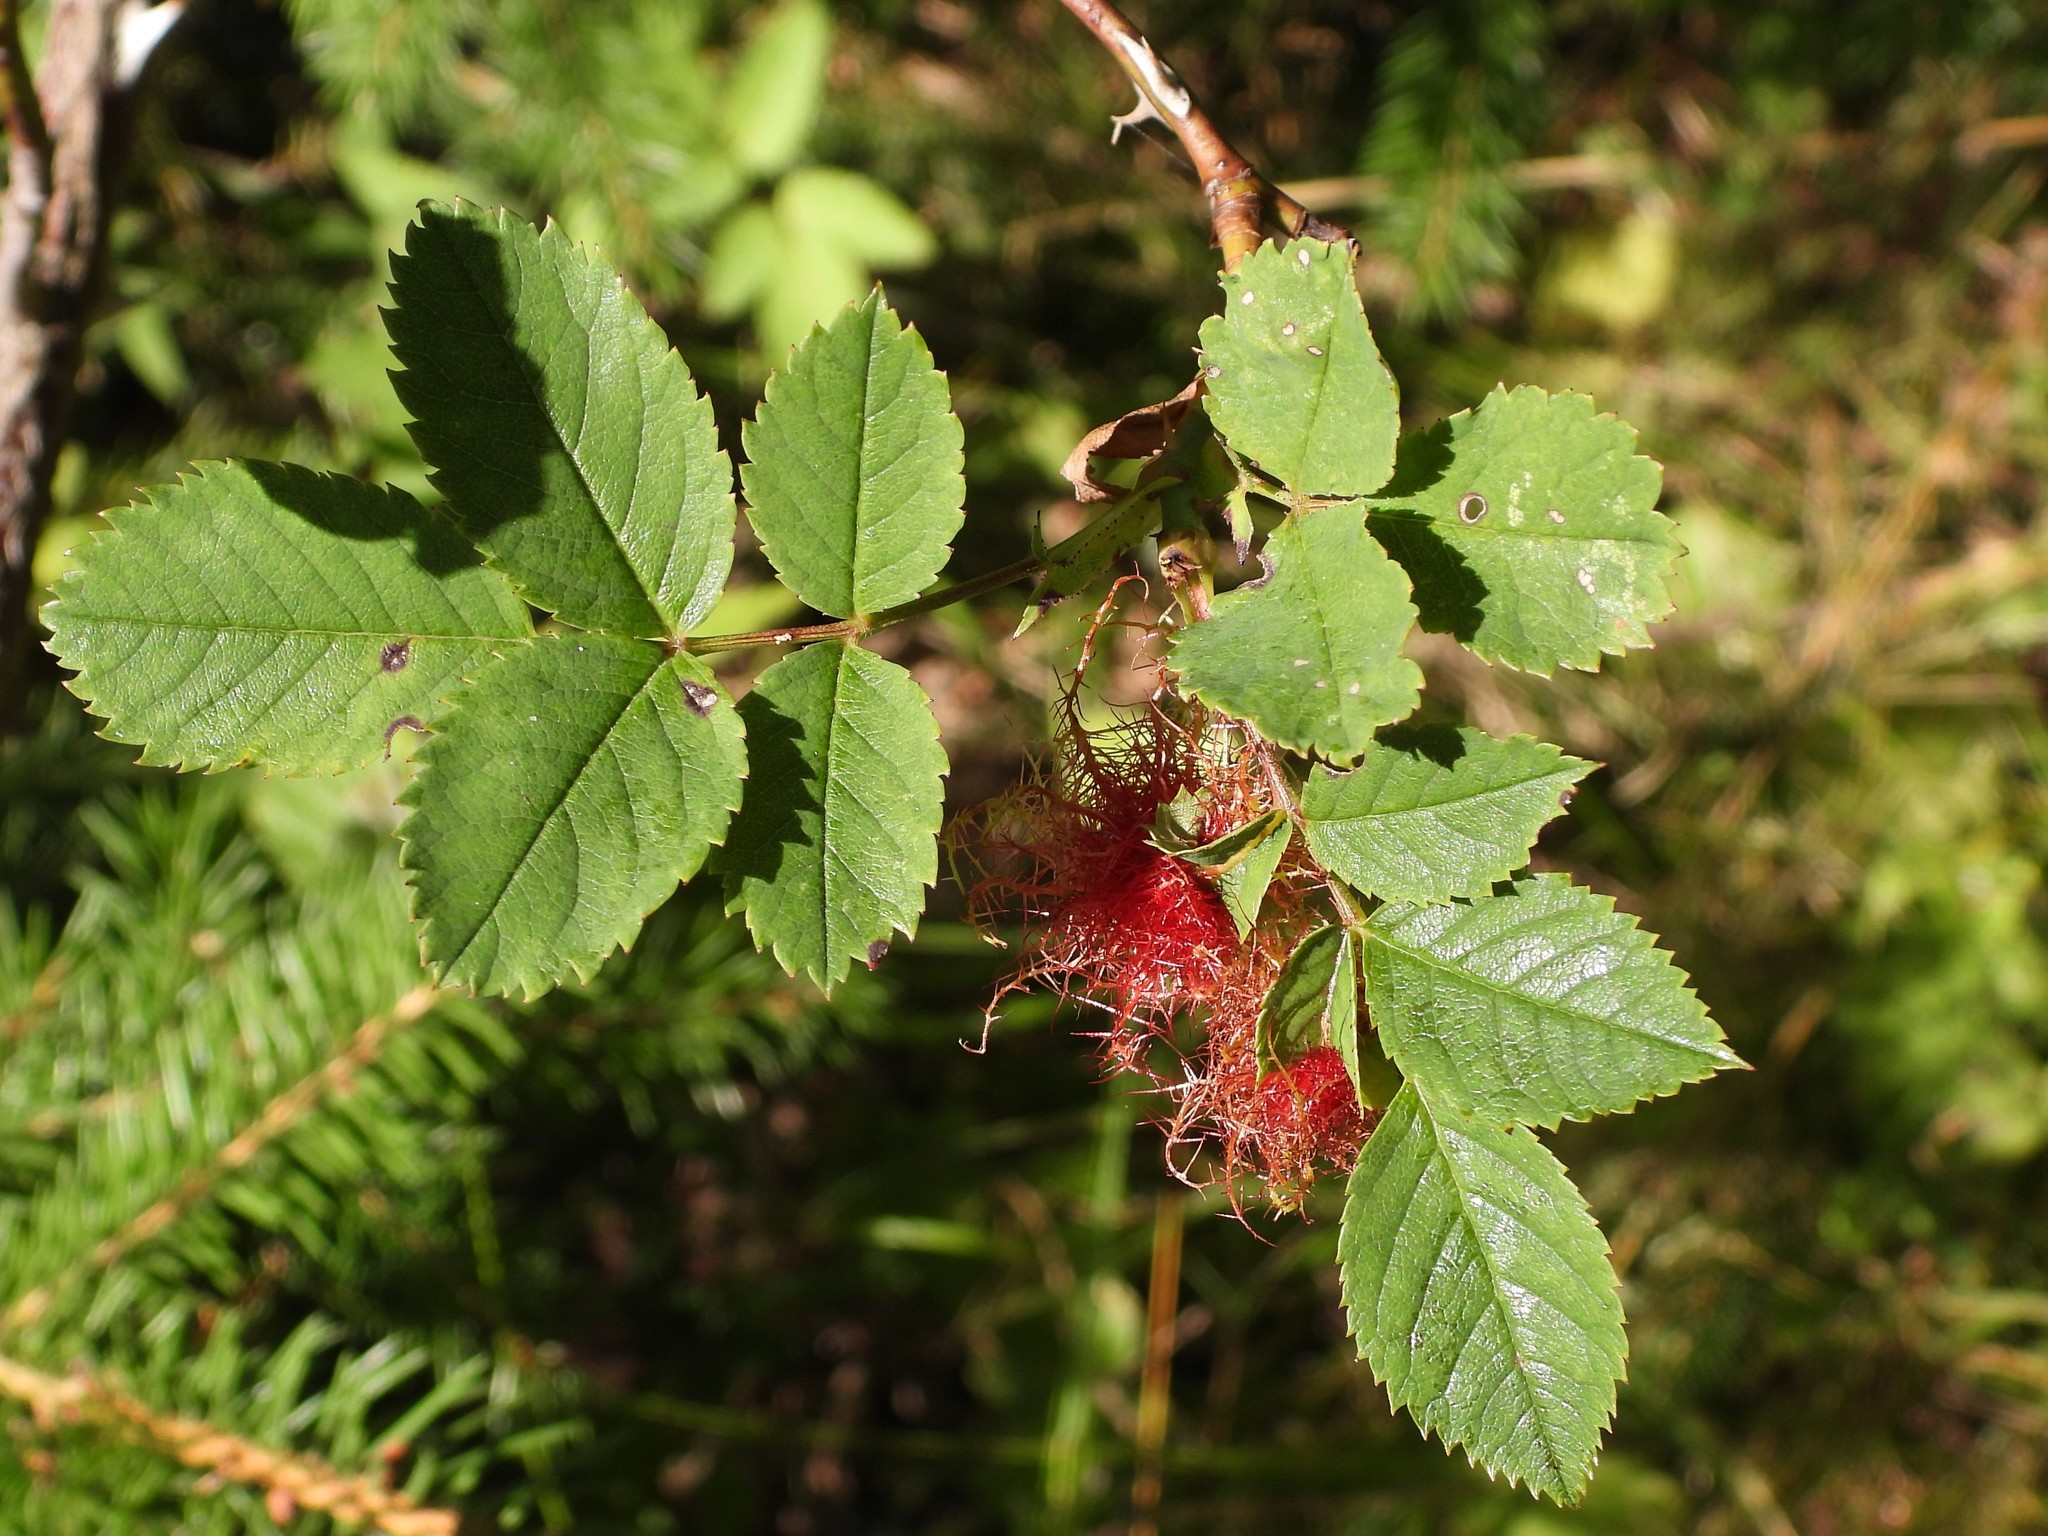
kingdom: Animalia
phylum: Arthropoda
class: Insecta
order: Hymenoptera
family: Cynipidae
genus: Diplolepis
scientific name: Diplolepis rosae
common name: Bedeguar gall
